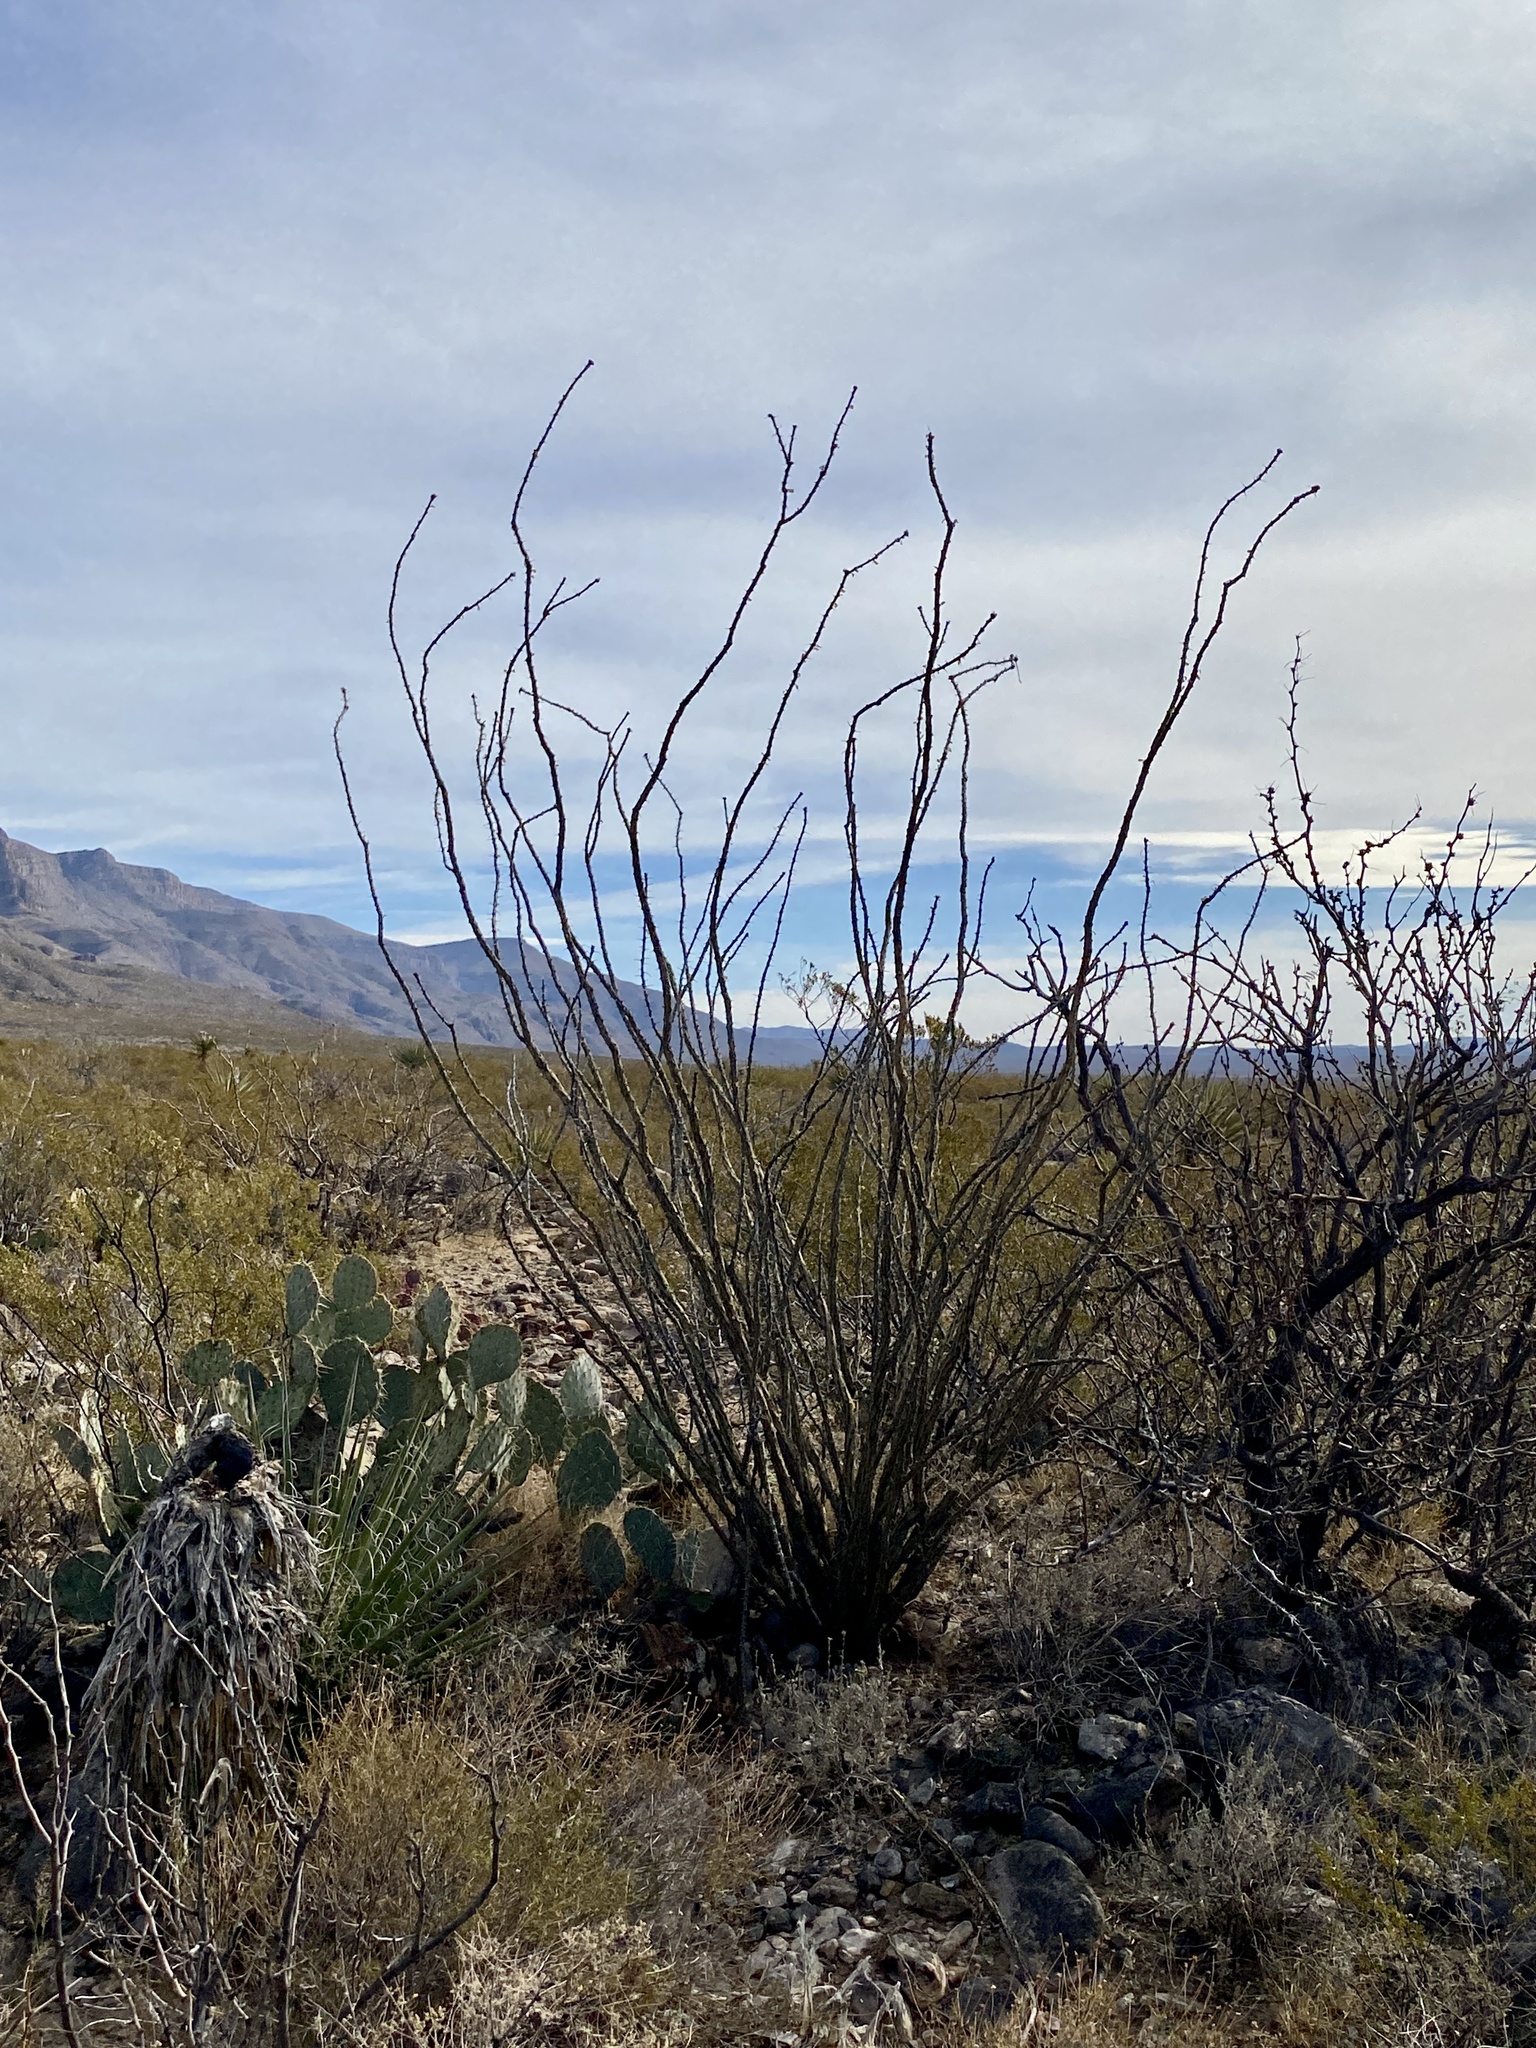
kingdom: Plantae
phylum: Tracheophyta
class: Magnoliopsida
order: Ericales
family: Fouquieriaceae
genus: Fouquieria
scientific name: Fouquieria splendens
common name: Vine-cactus
